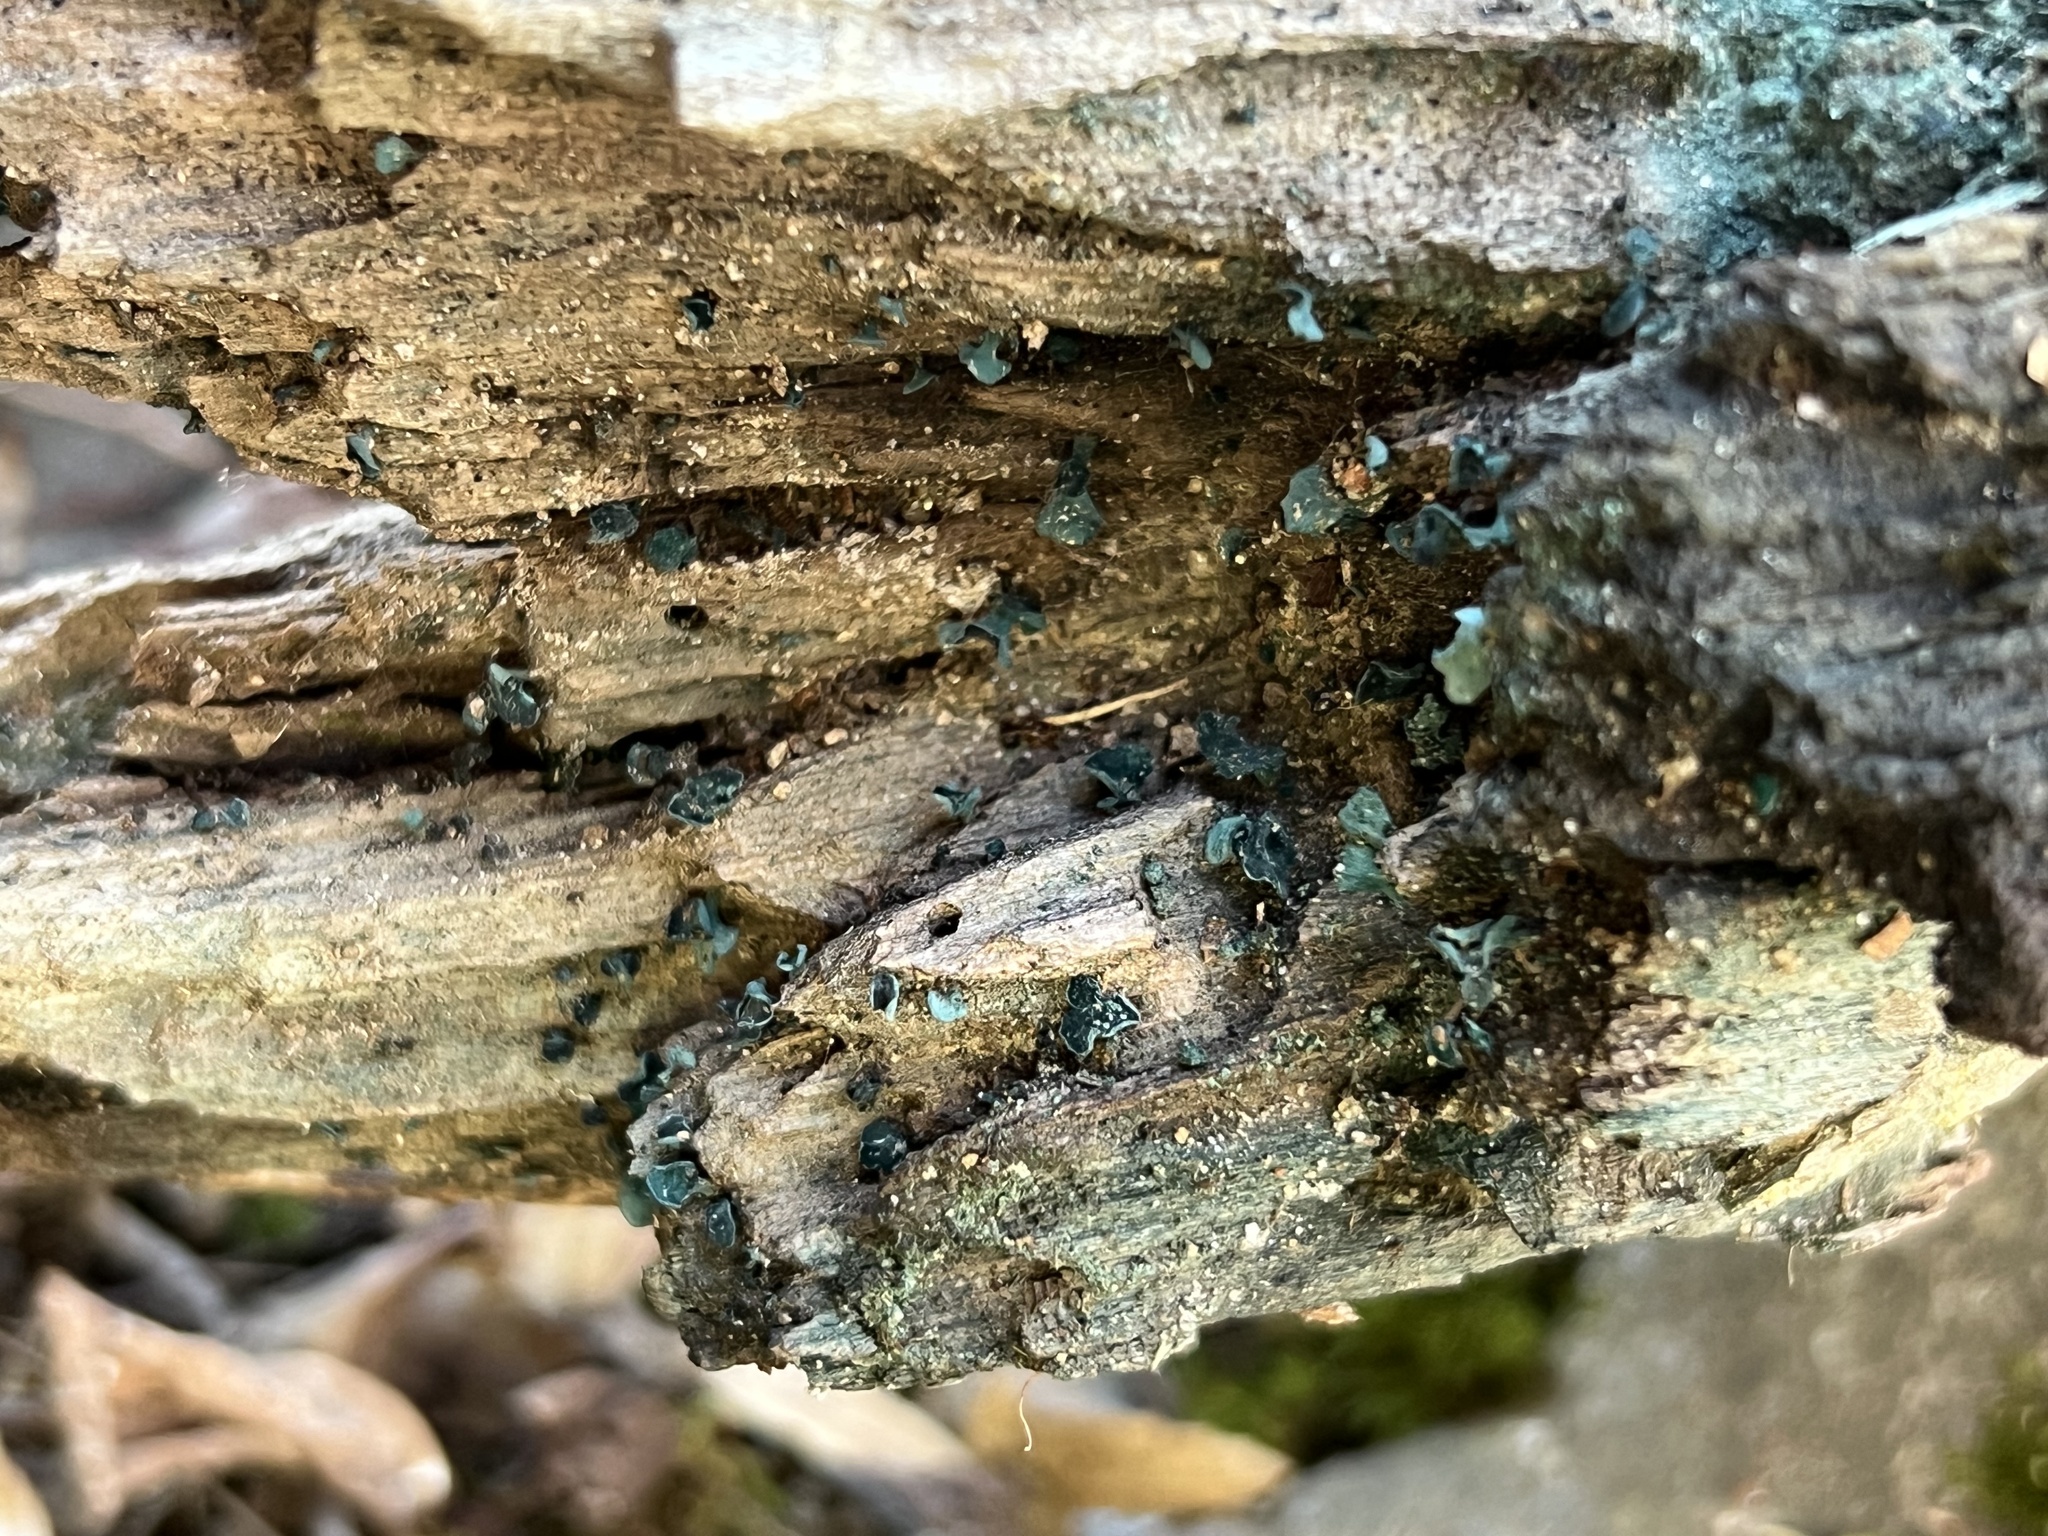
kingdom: Fungi
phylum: Ascomycota
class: Leotiomycetes
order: Helotiales
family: Chlorociboriaceae
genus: Chlorociboria
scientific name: Chlorociboria aeruginascens
